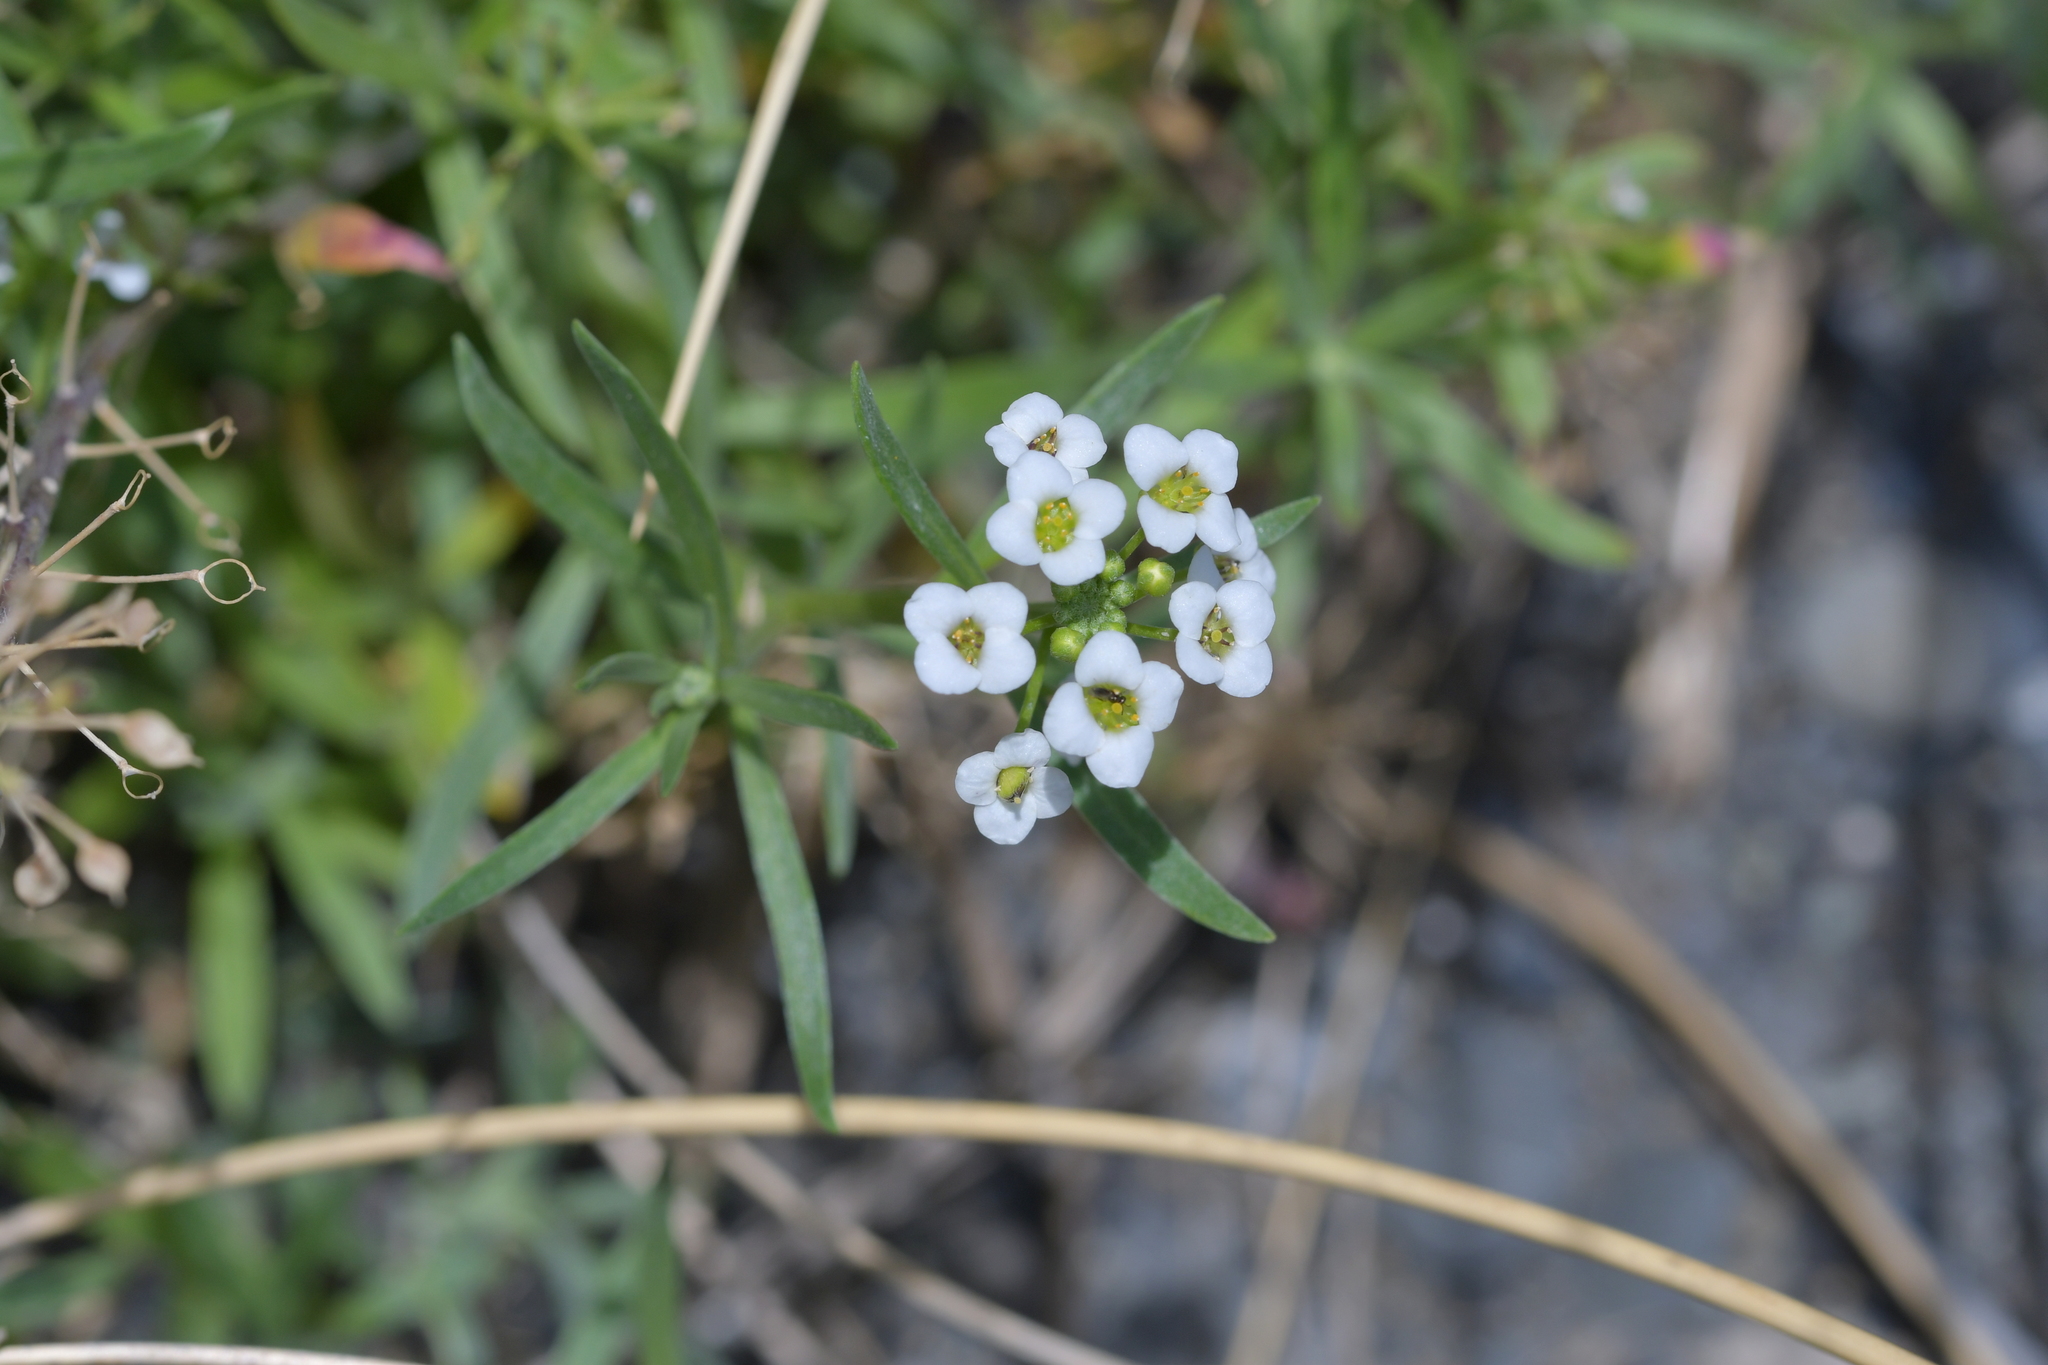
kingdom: Plantae
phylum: Tracheophyta
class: Magnoliopsida
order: Brassicales
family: Brassicaceae
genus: Lobularia
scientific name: Lobularia maritima
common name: Sweet alison
